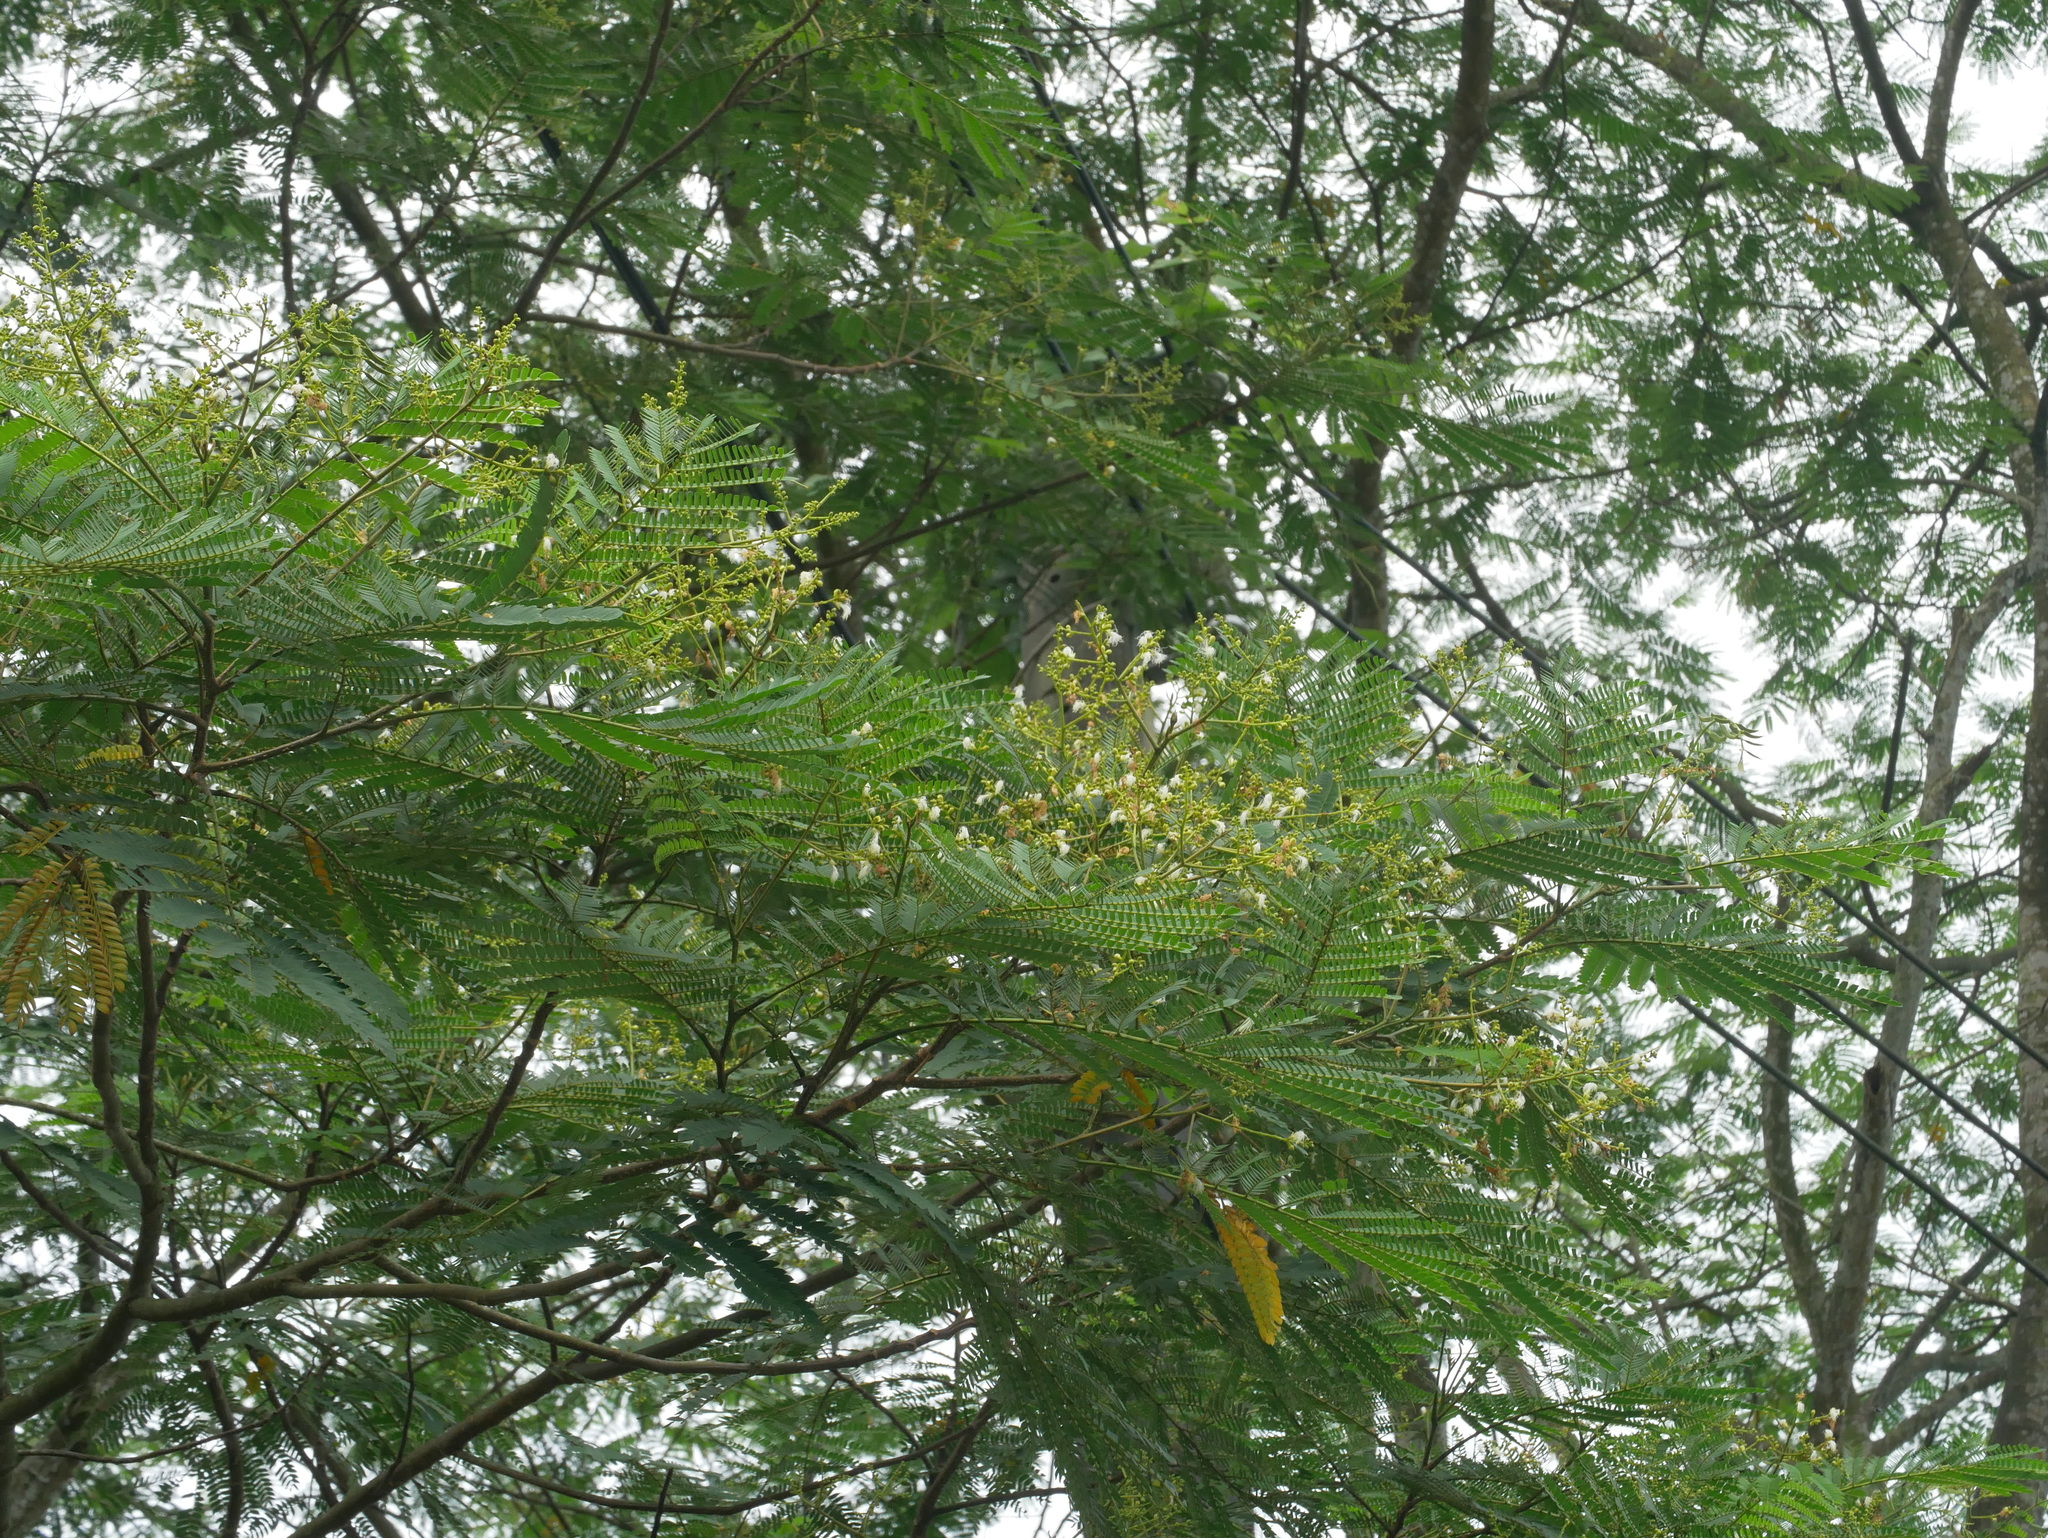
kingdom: Plantae
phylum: Tracheophyta
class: Magnoliopsida
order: Fabales
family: Fabaceae
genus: Falcataria
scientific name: Falcataria falcata
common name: Moluccan albizia
